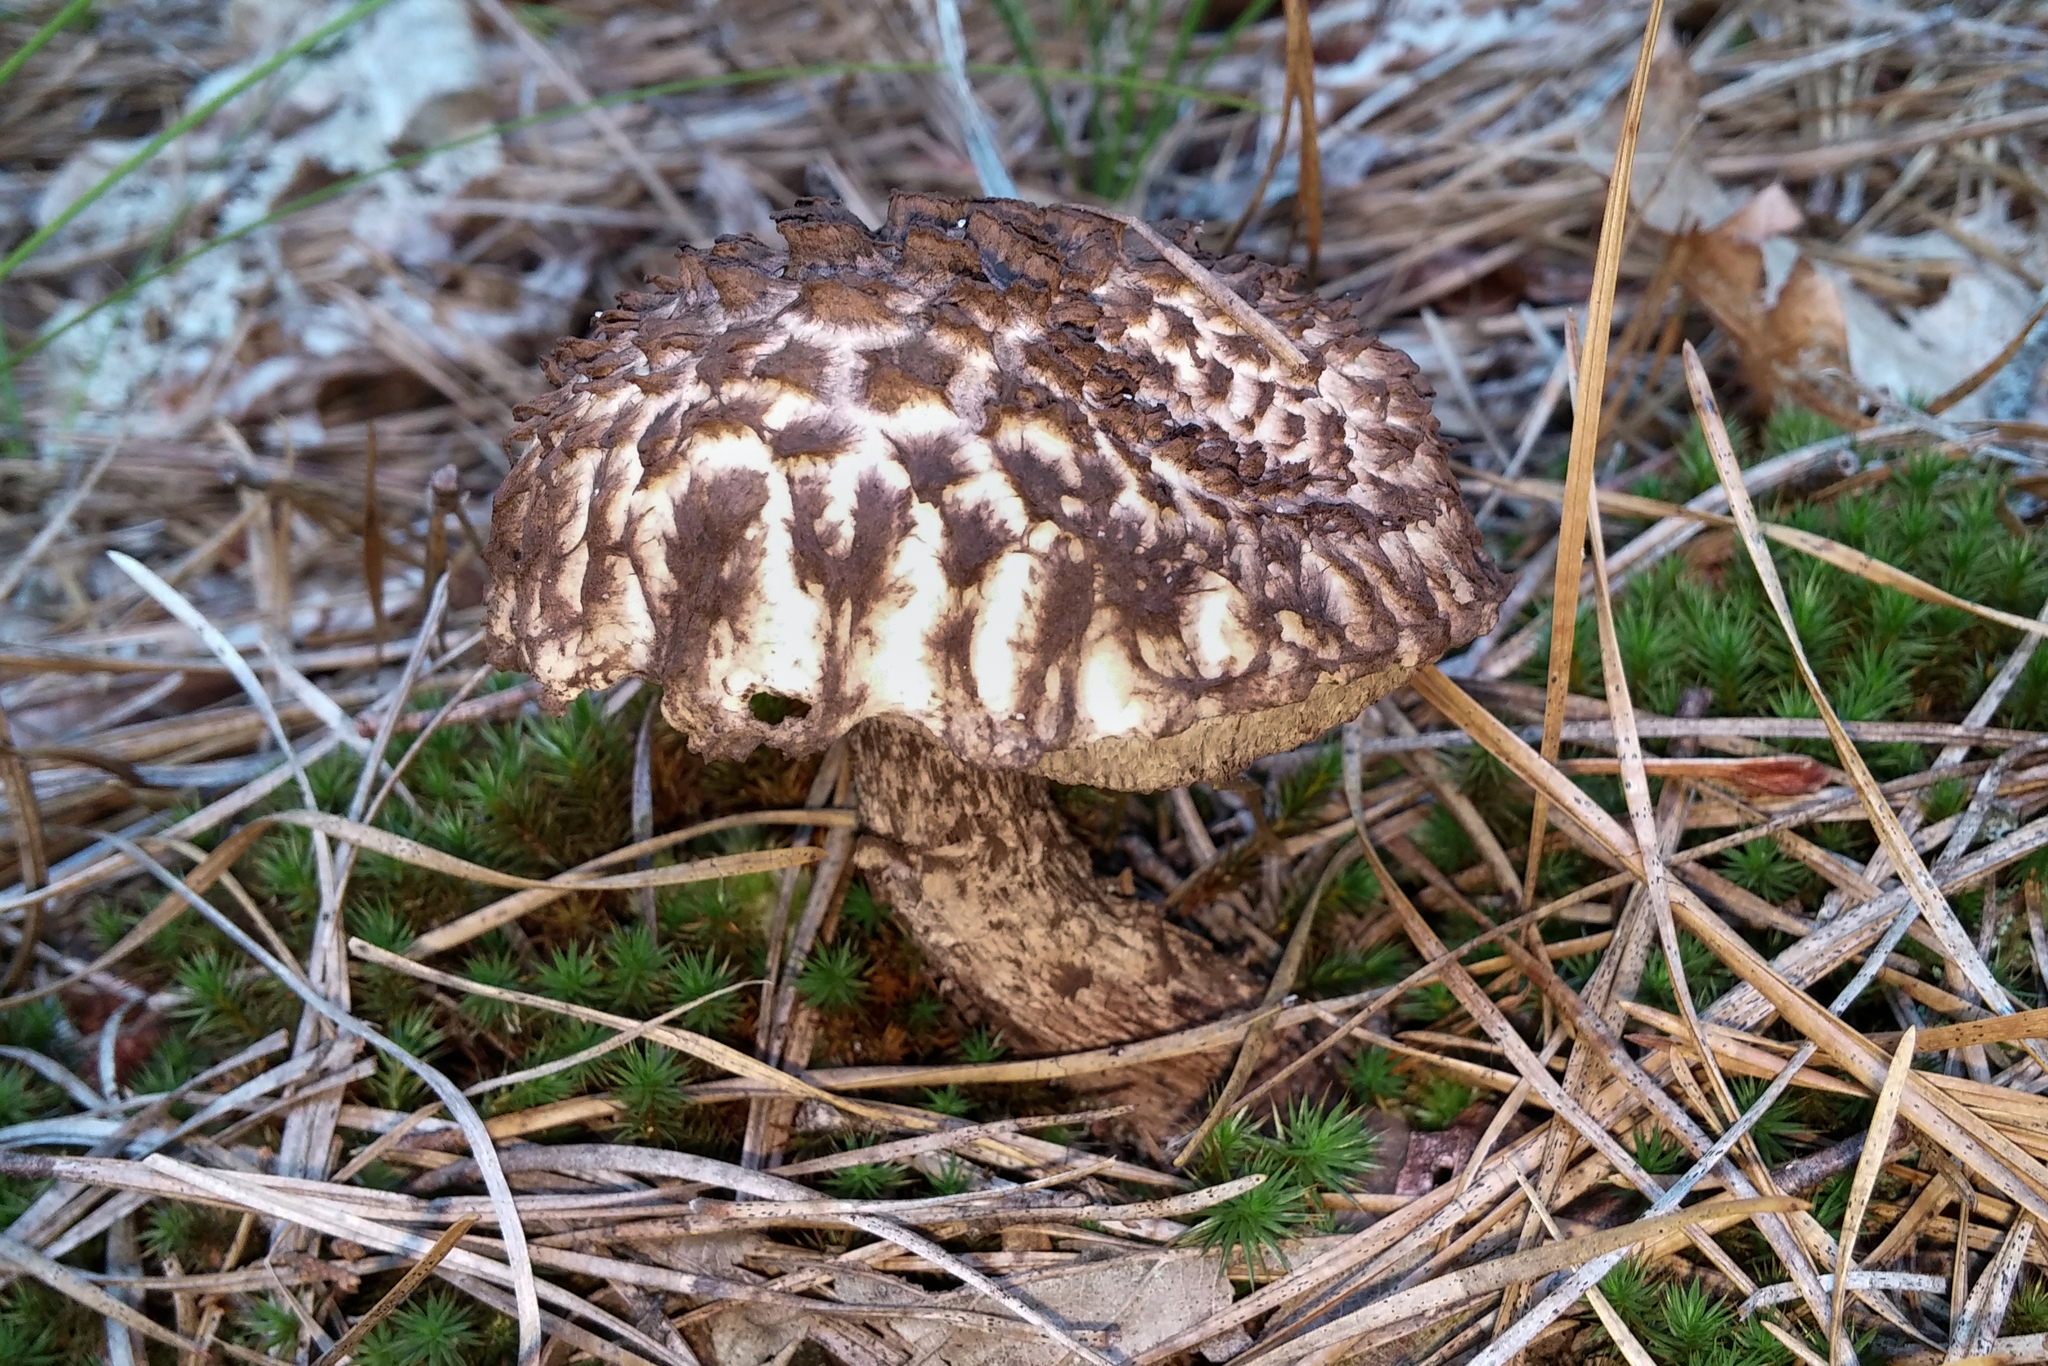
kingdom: Fungi
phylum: Basidiomycota
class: Agaricomycetes
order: Boletales
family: Boletaceae
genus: Strobilomyces
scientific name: Strobilomyces strobilaceus
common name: Old man of the woods
